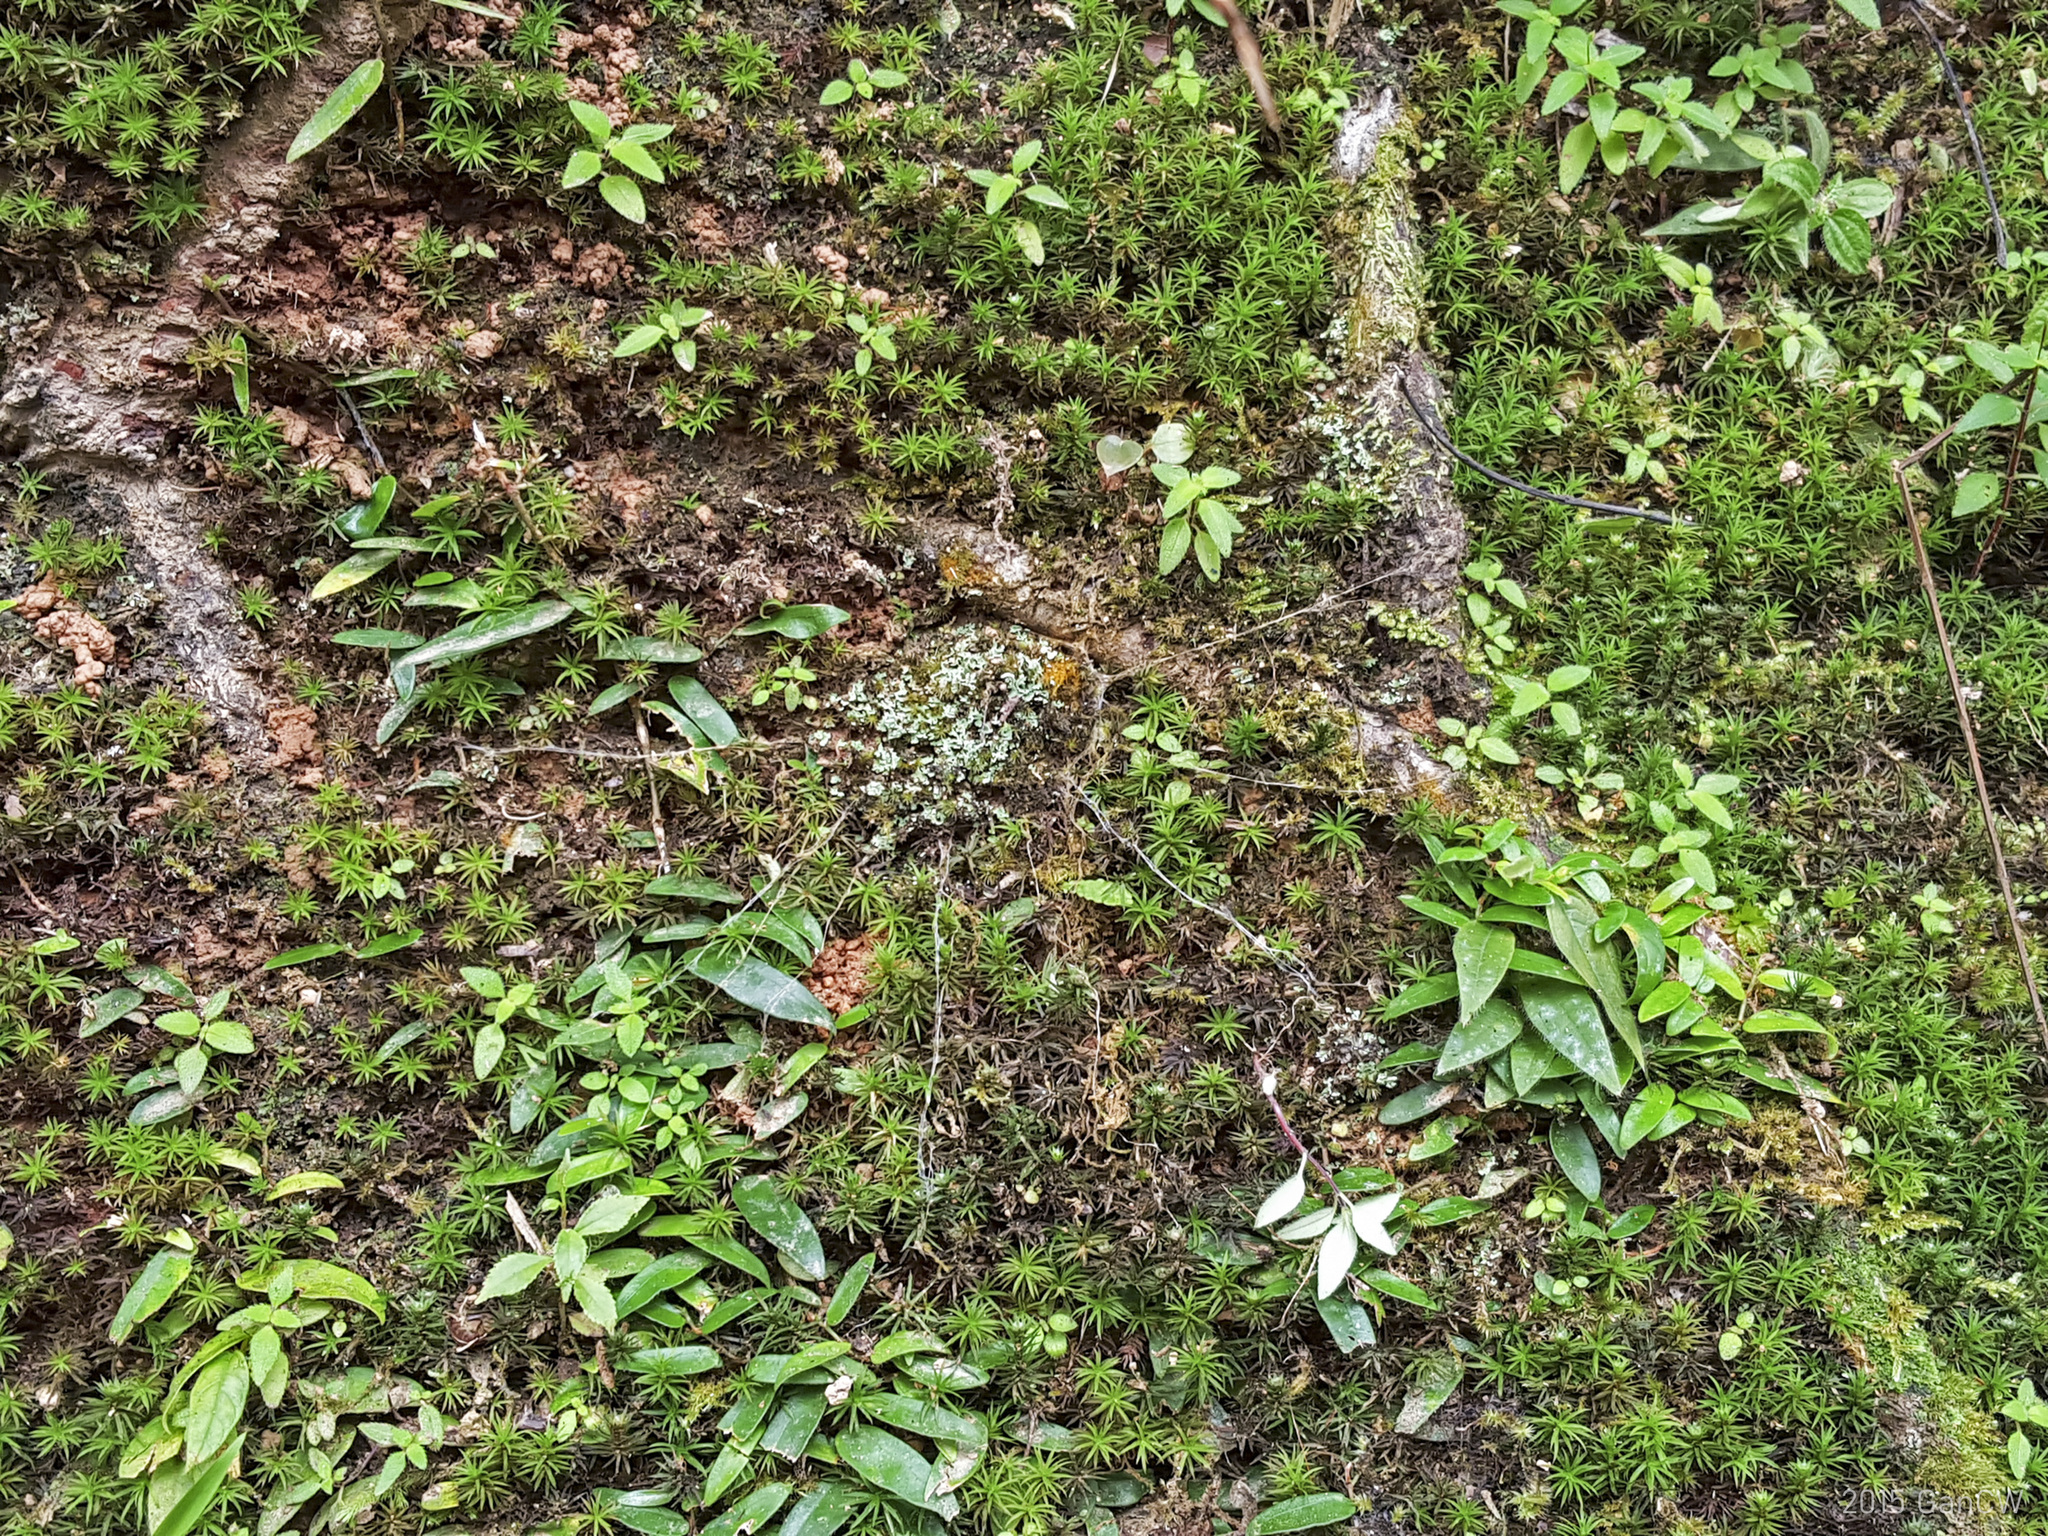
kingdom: Animalia
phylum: Arthropoda
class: Arachnida
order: Araneae
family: Liphistiidae
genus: Liphistius
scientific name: Liphistius malayanus
